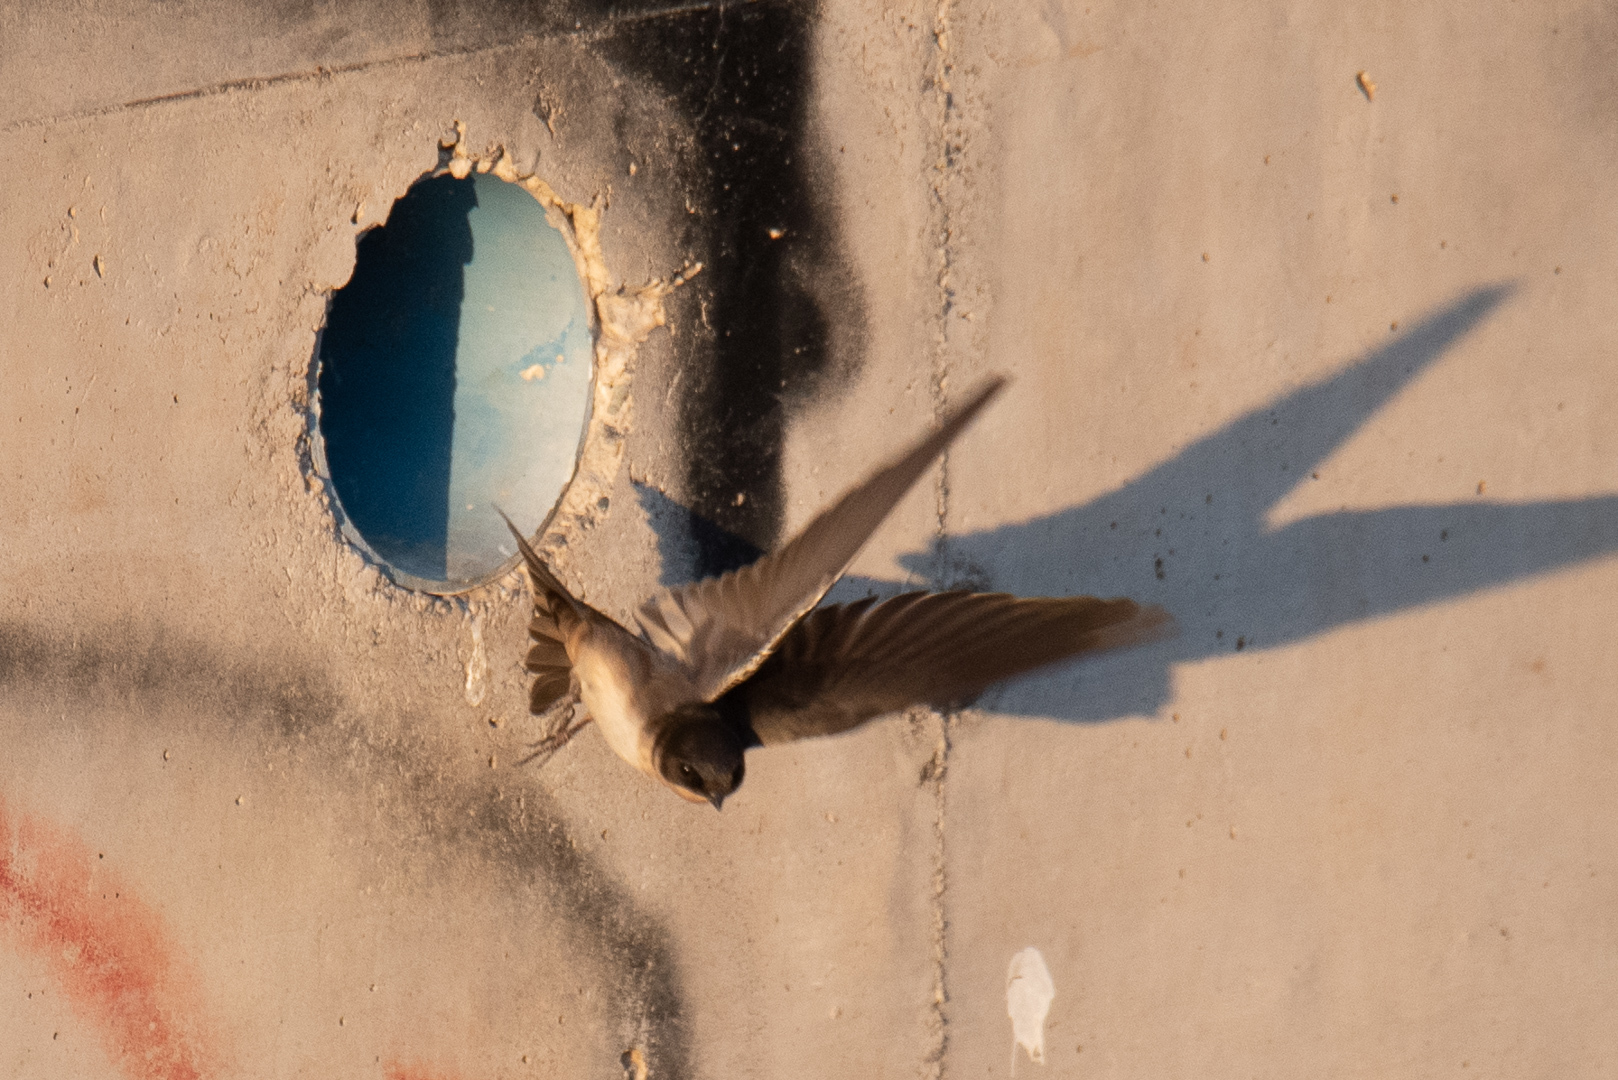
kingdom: Animalia
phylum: Chordata
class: Aves
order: Passeriformes
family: Hirundinidae
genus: Notiochelidon
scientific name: Notiochelidon cyanoleuca
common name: Blue-and-white swallow
